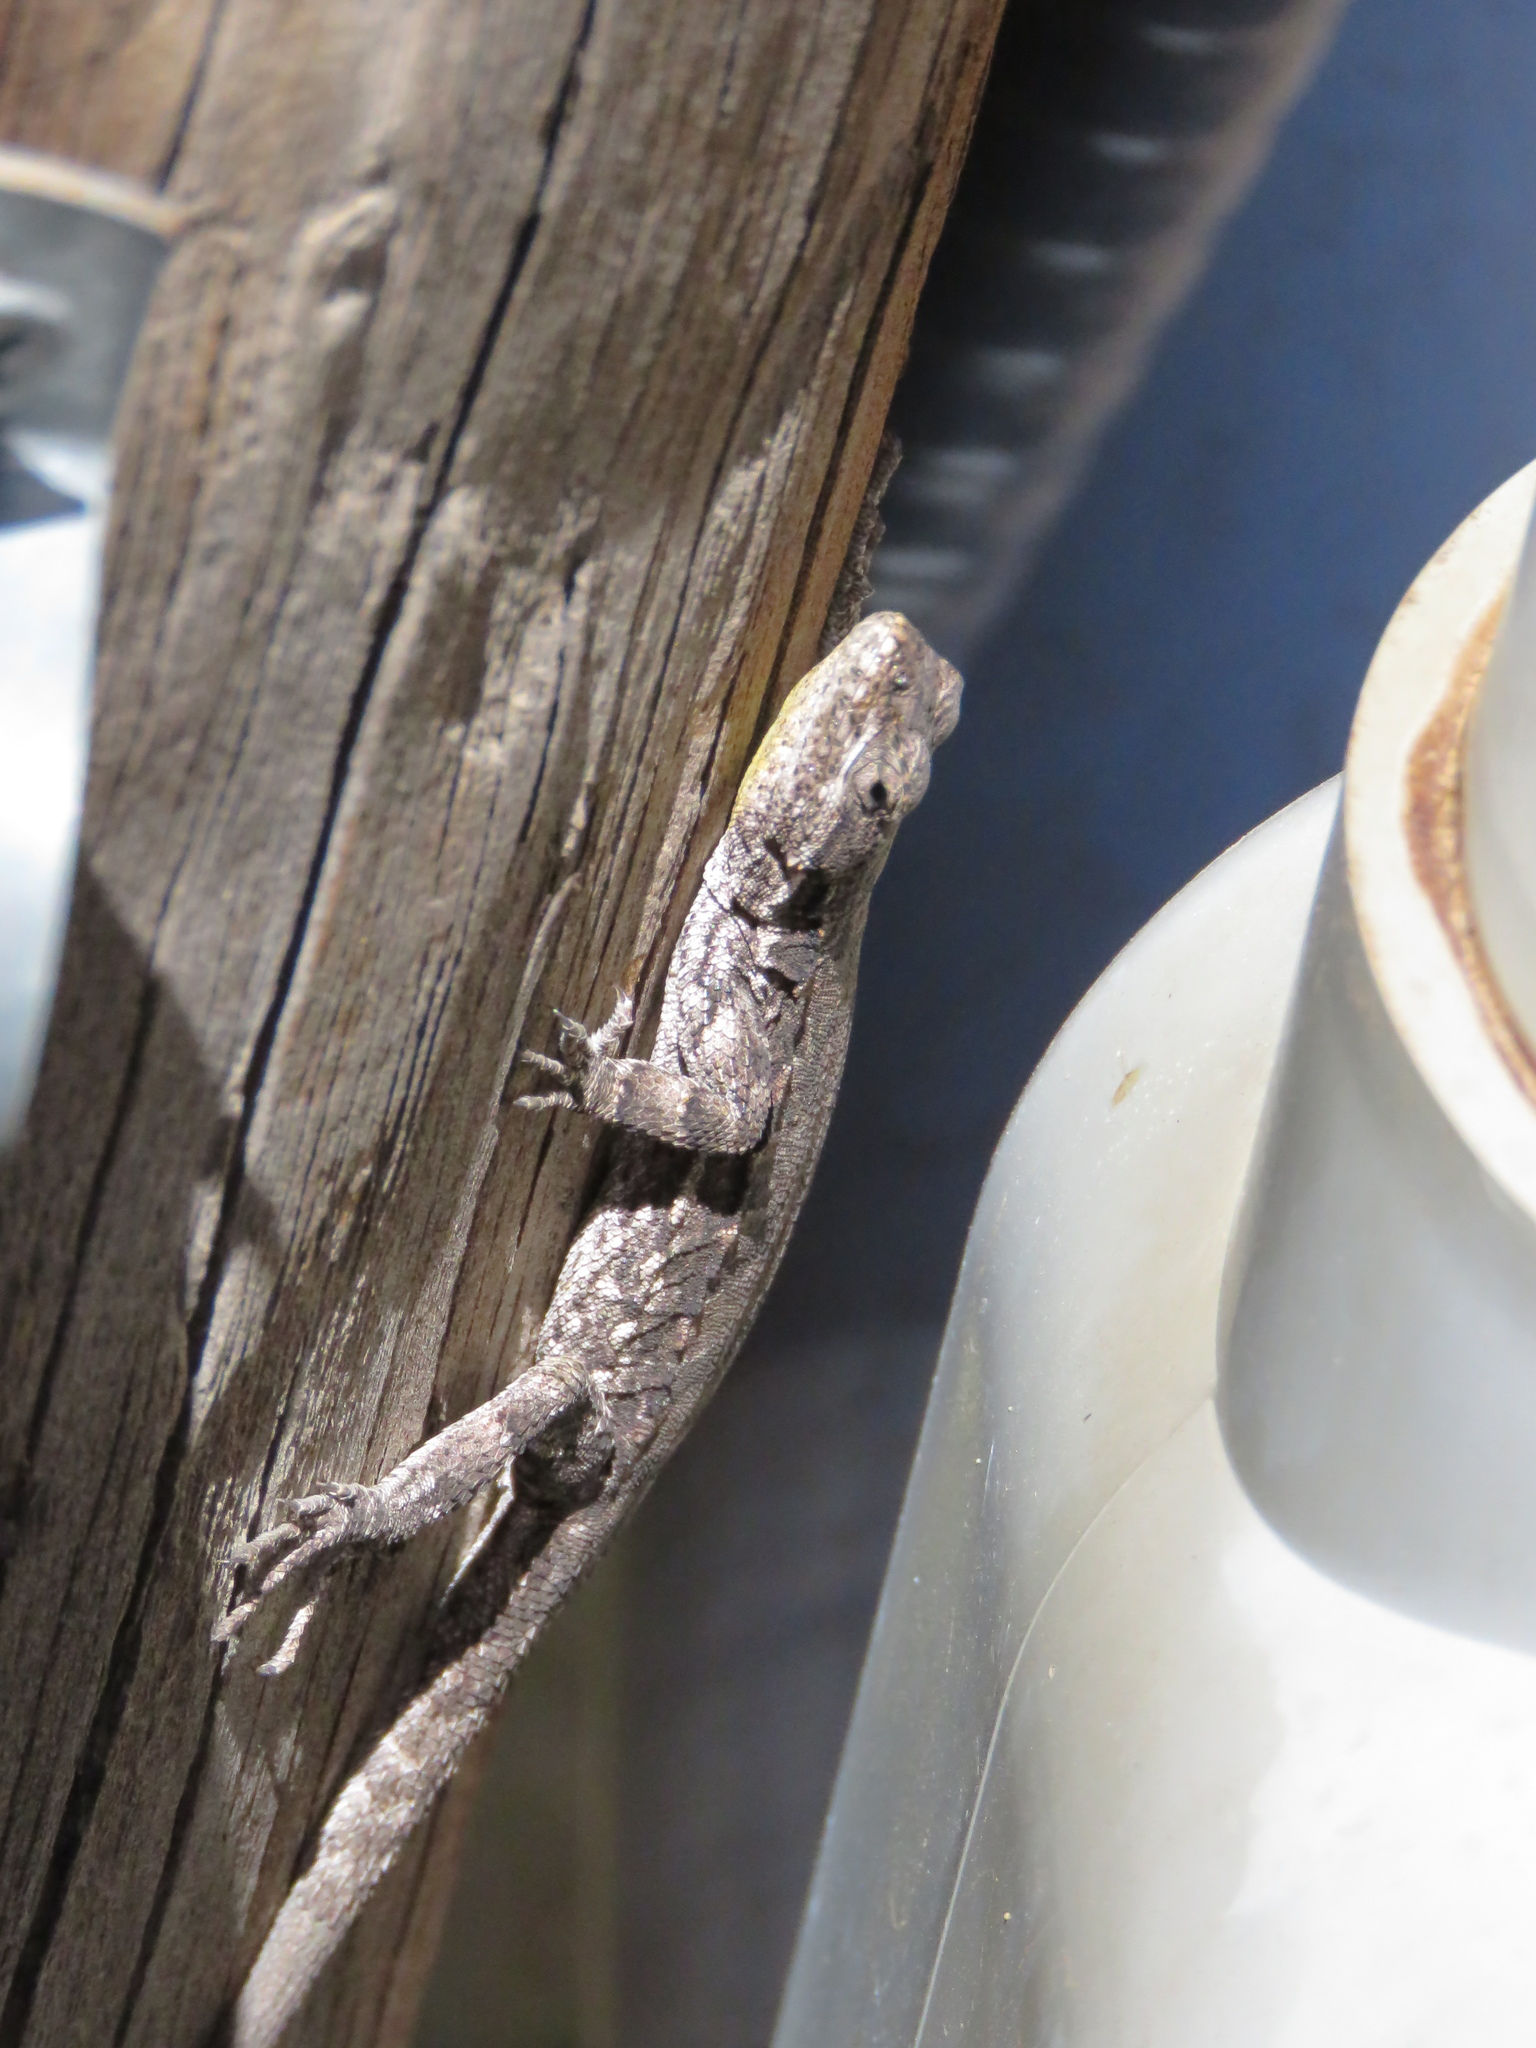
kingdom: Animalia
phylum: Chordata
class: Squamata
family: Phrynosomatidae
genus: Urosaurus
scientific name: Urosaurus ornatus
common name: Ornate tree lizard
